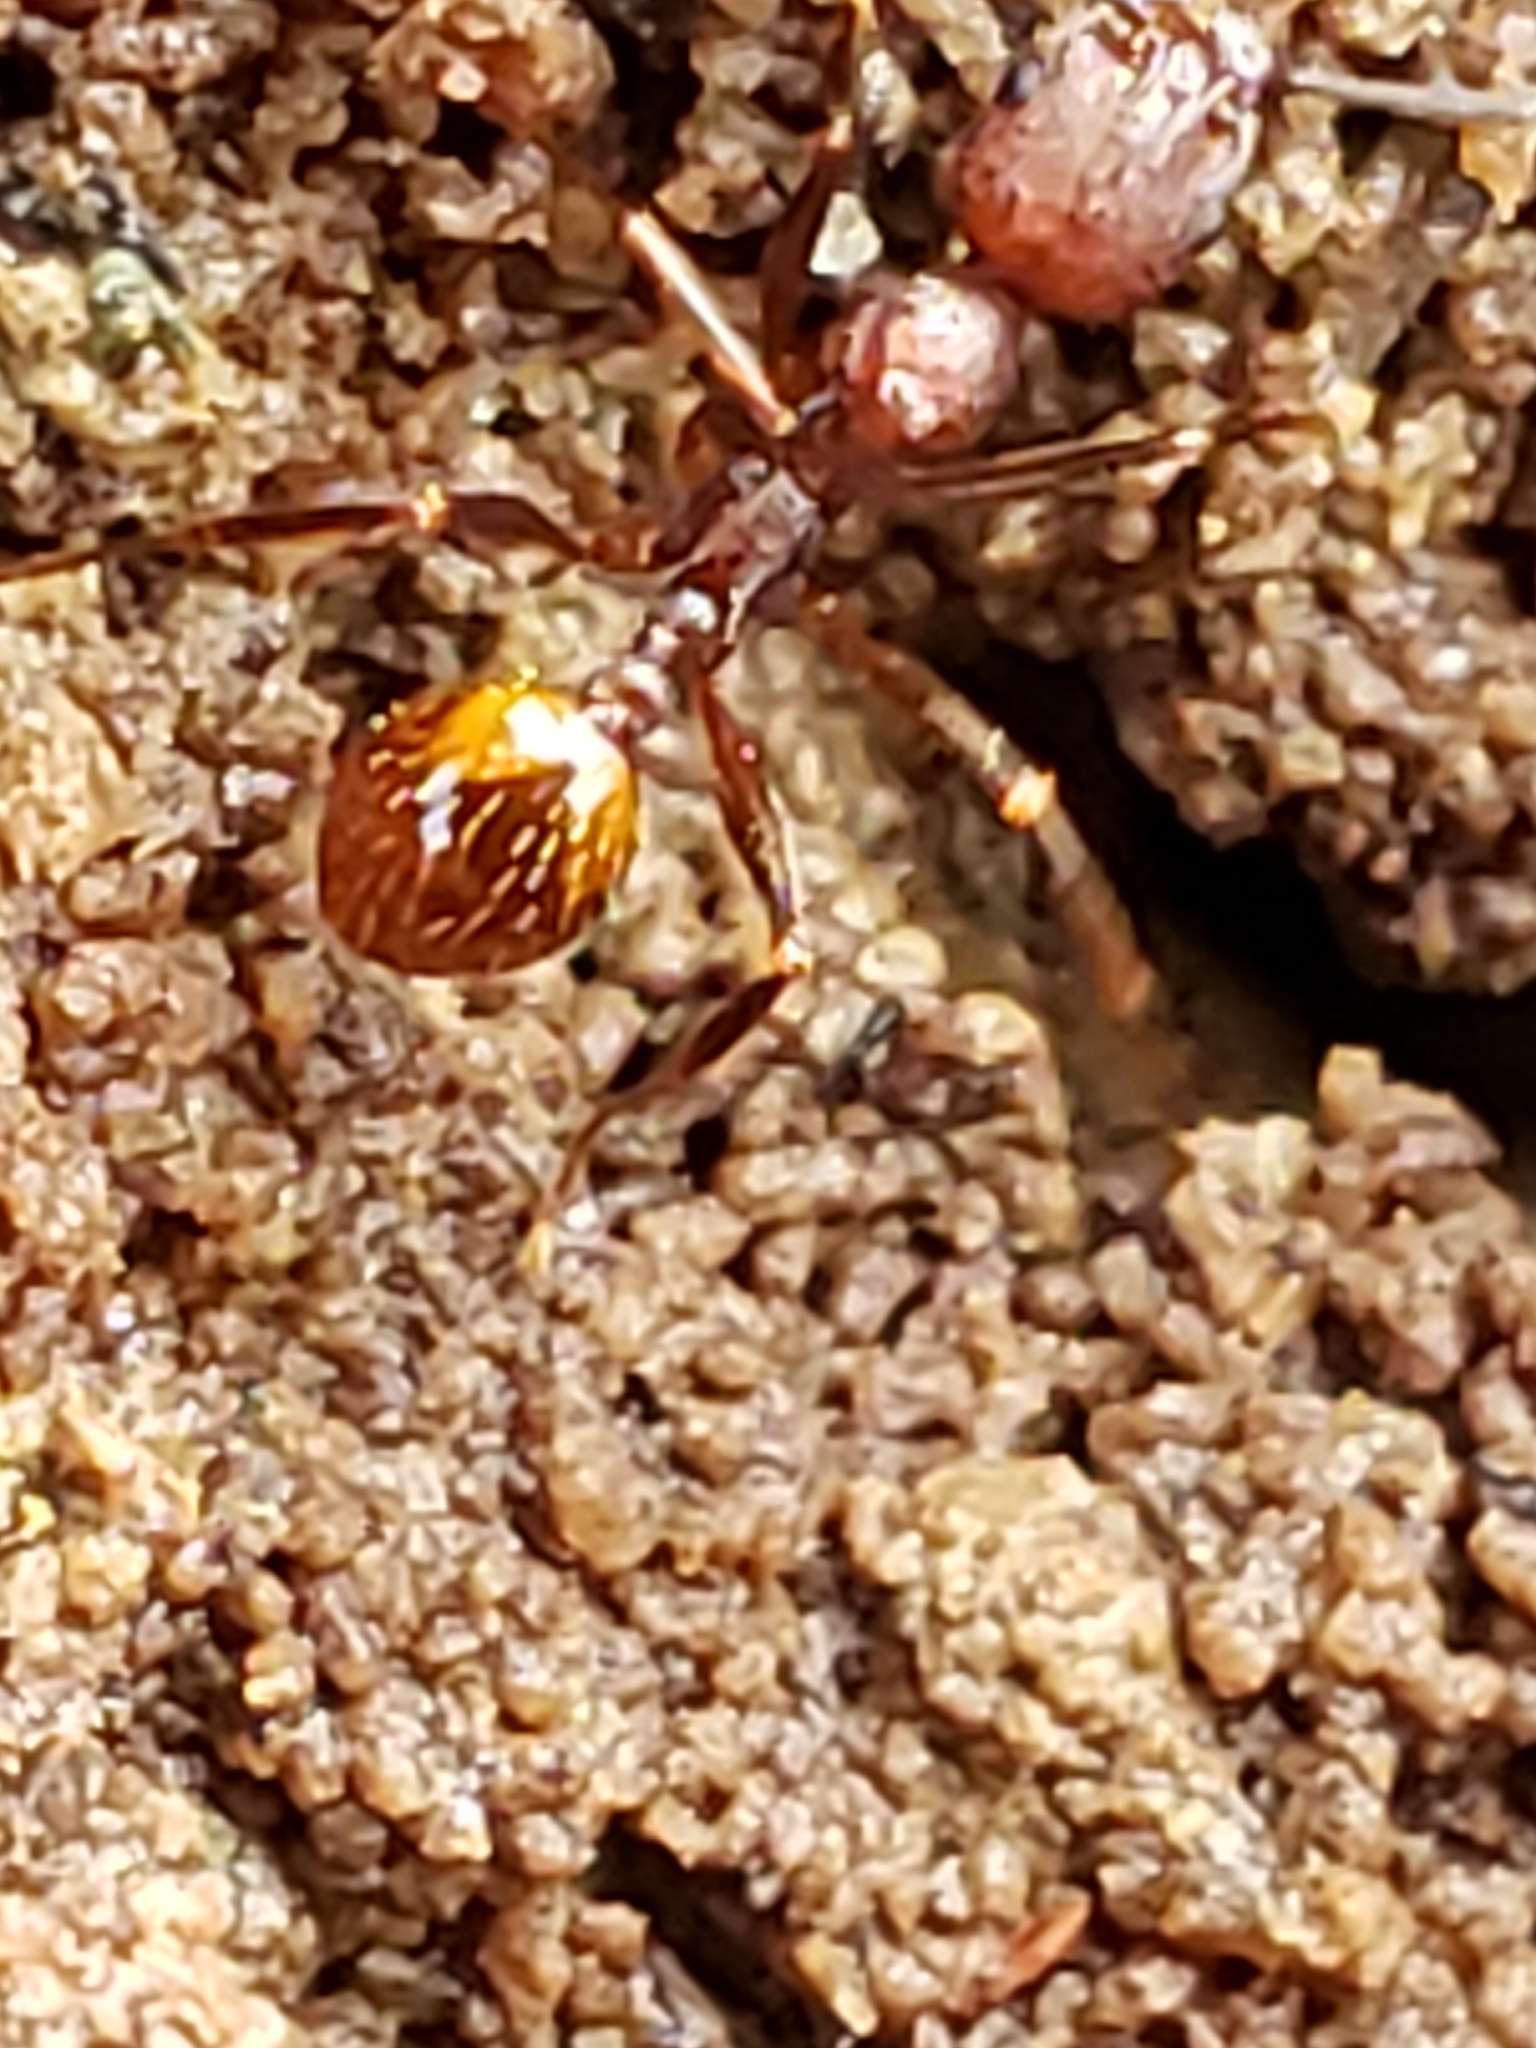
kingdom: Animalia
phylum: Arthropoda
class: Insecta
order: Hymenoptera
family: Formicidae
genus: Aphaenogaster
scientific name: Aphaenogaster fulva
